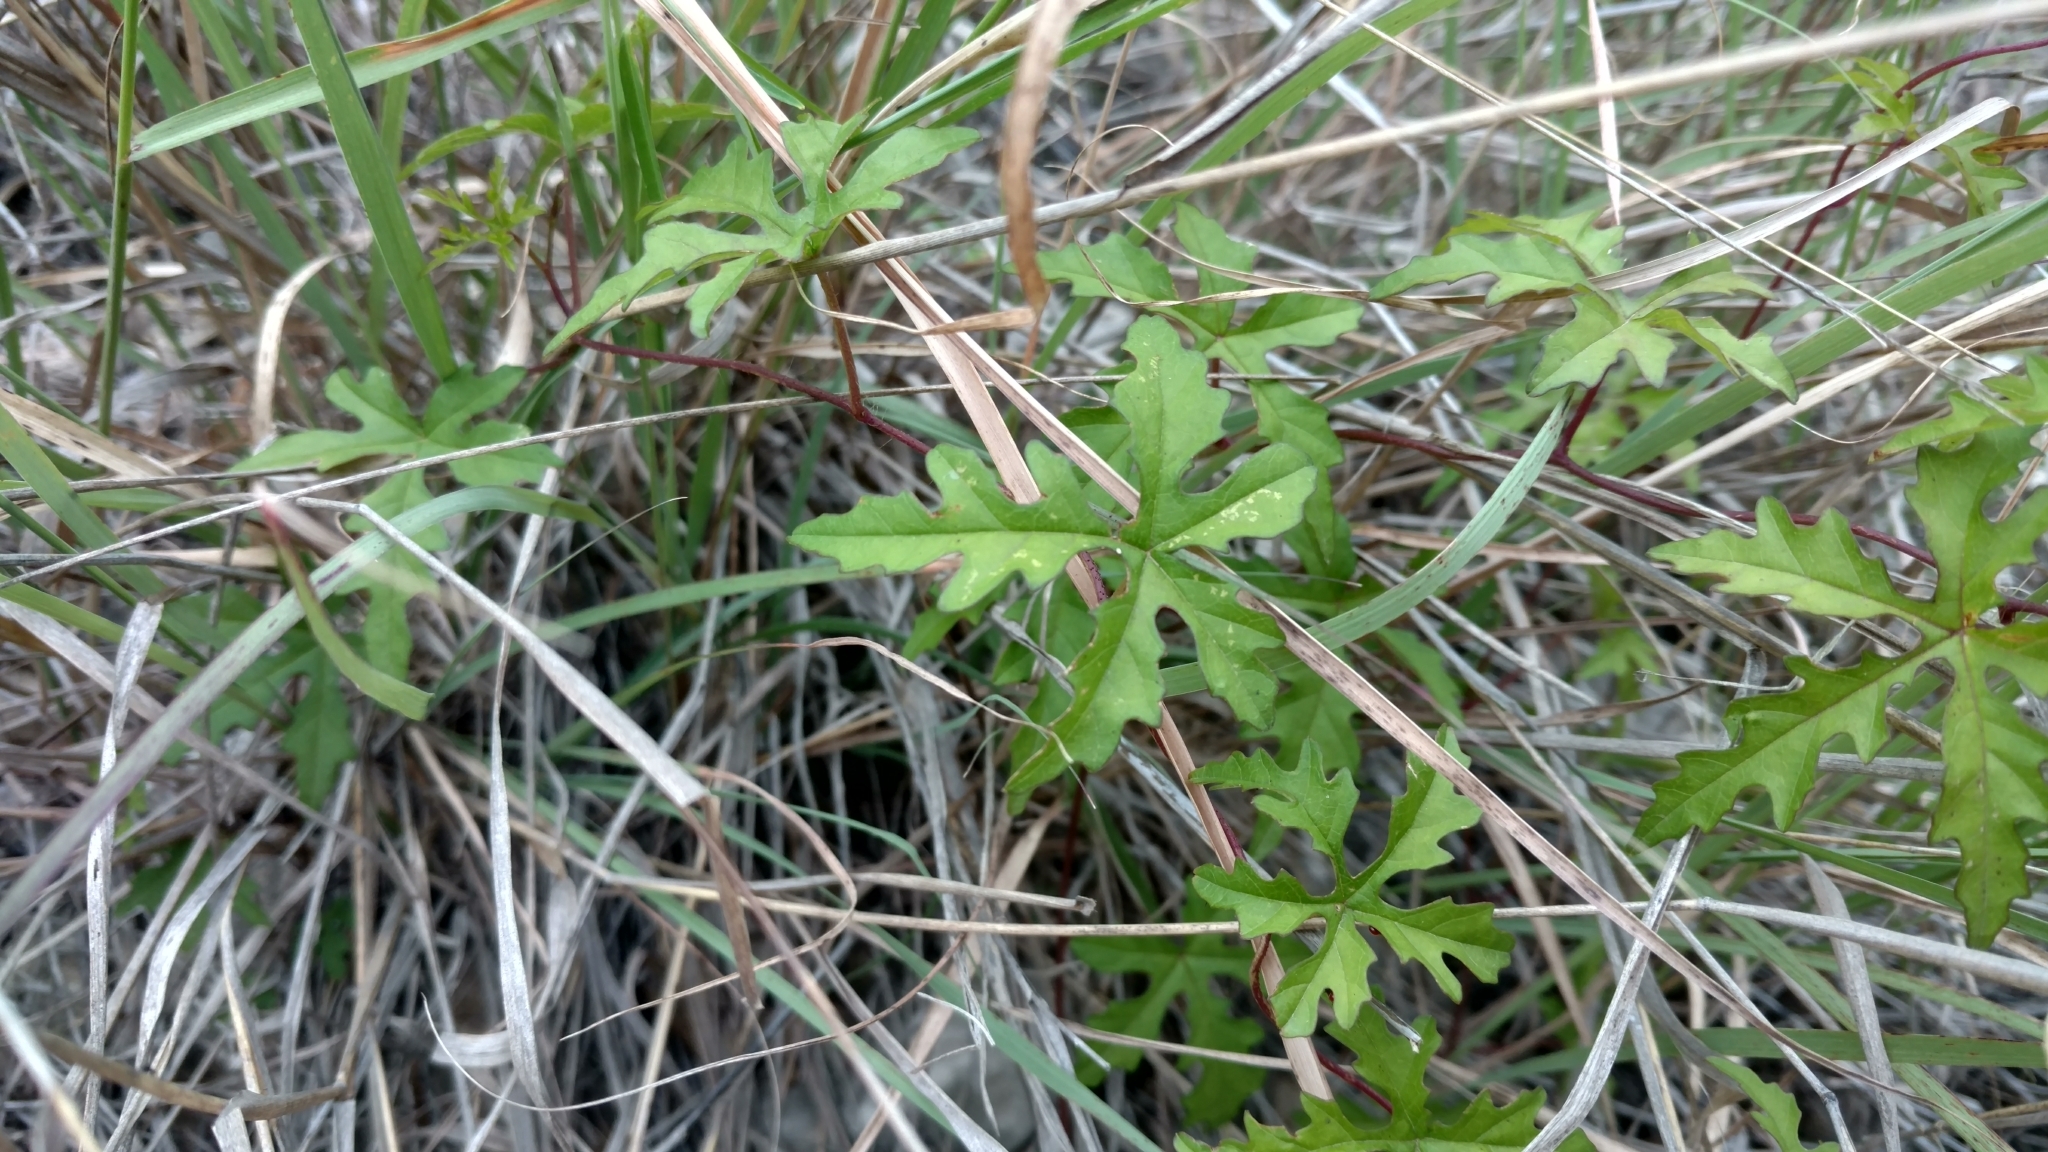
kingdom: Plantae
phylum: Tracheophyta
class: Magnoliopsida
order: Solanales
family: Convolvulaceae
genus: Distimake
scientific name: Distimake dissectus
